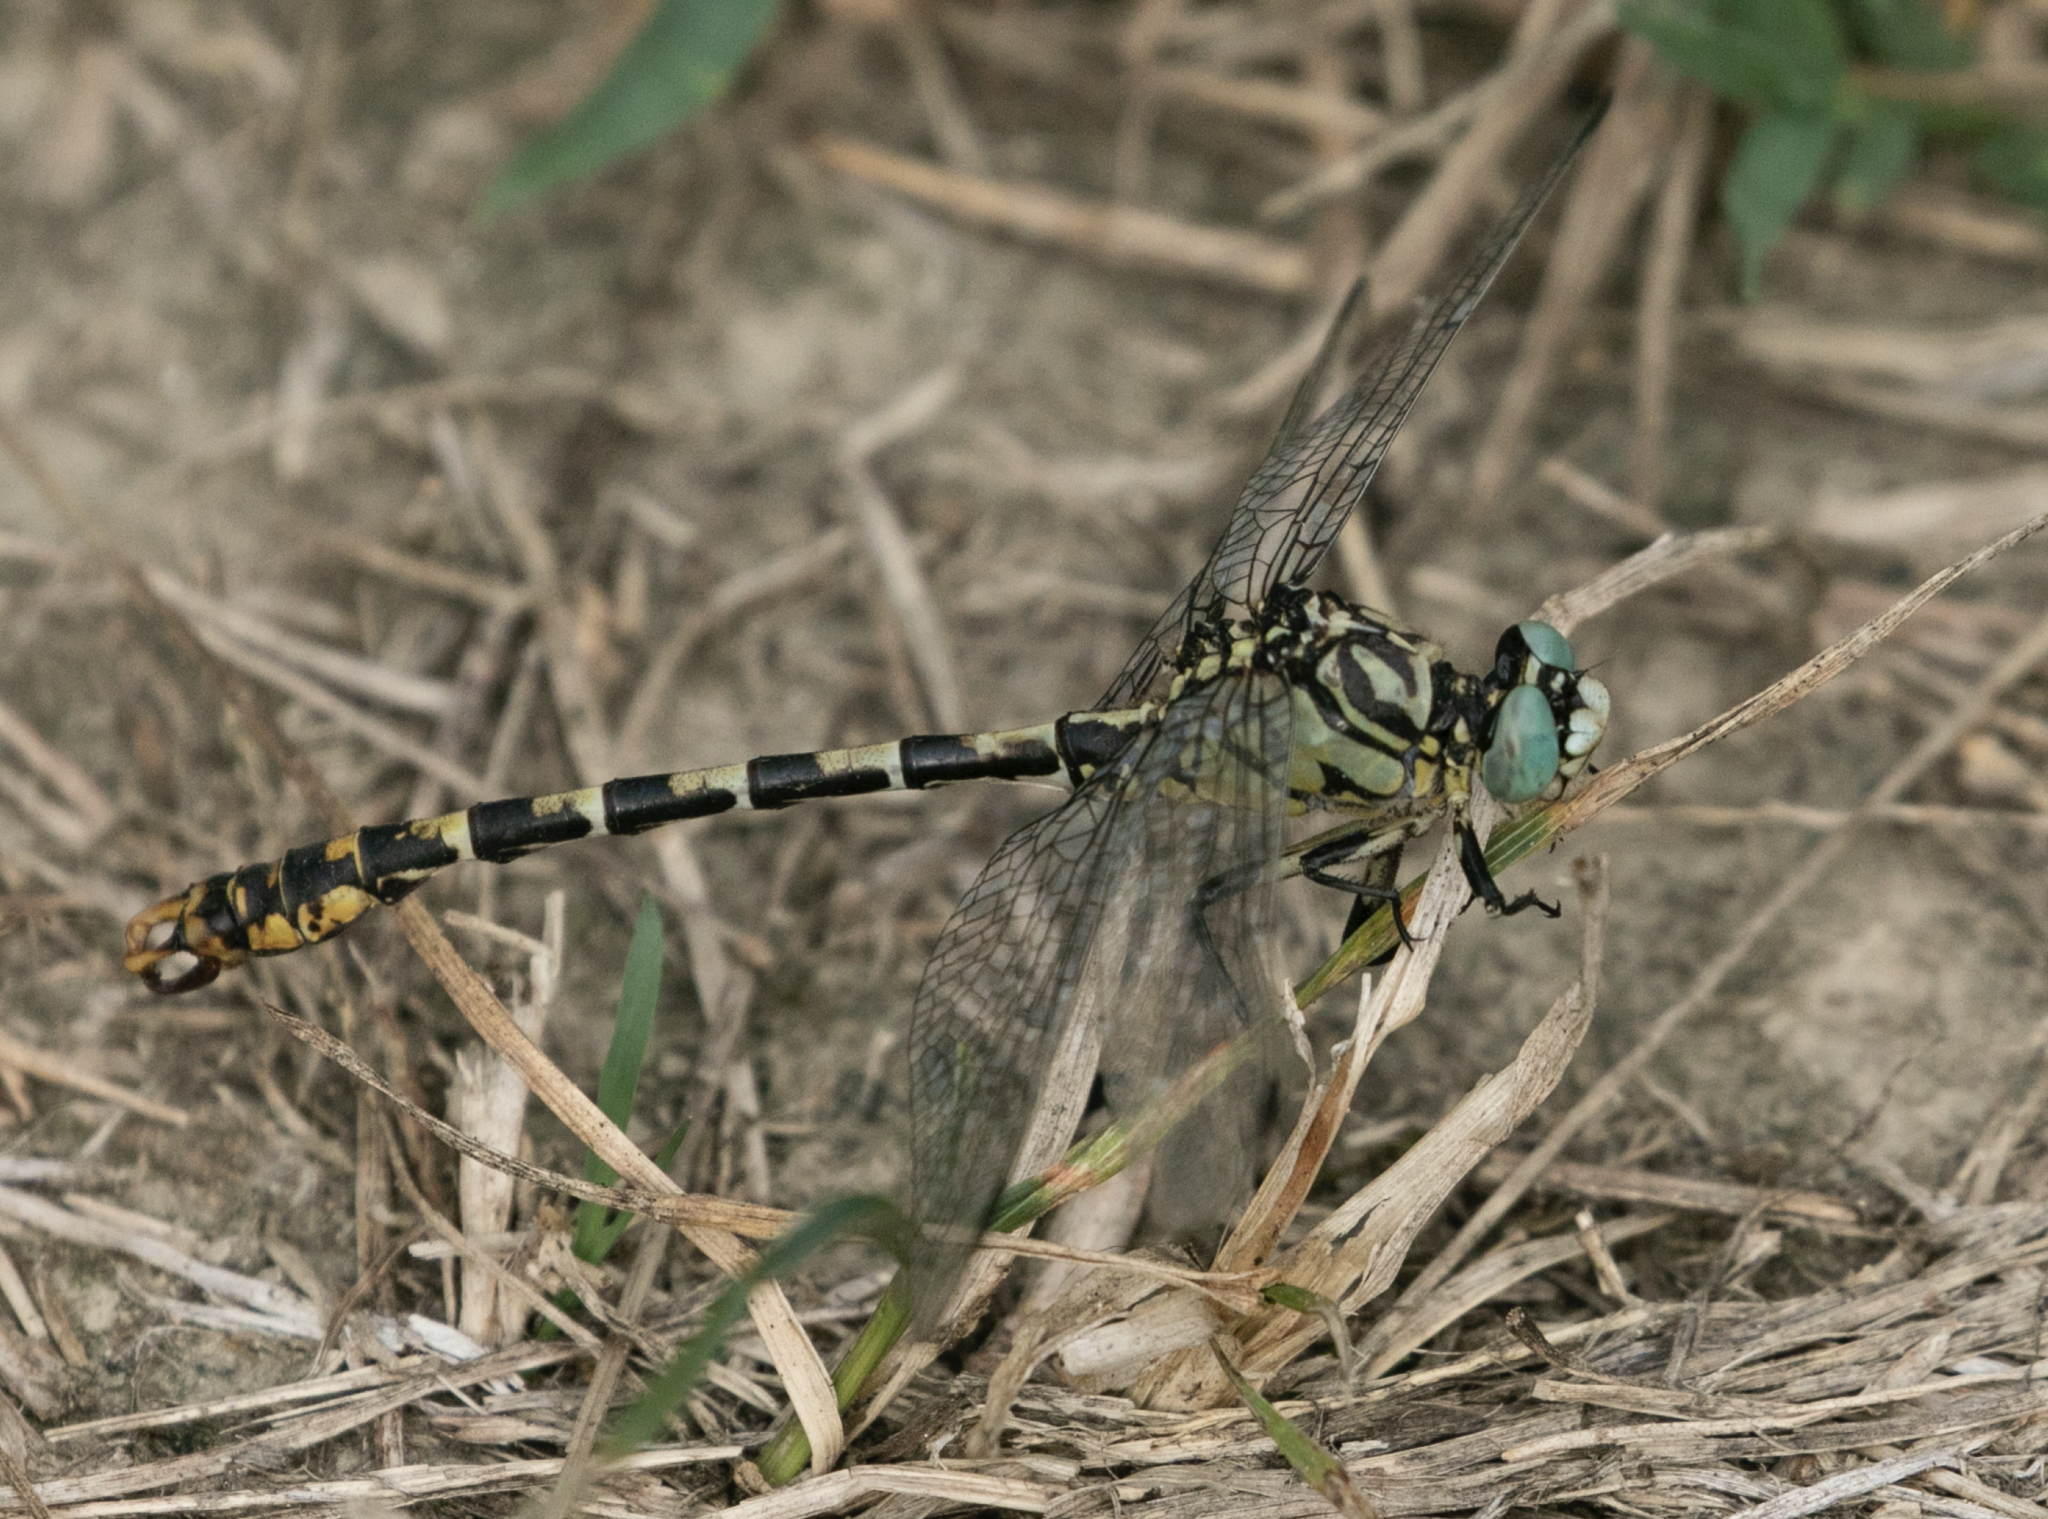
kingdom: Animalia
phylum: Arthropoda
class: Insecta
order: Odonata
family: Gomphidae
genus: Onychogomphus
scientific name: Onychogomphus forcipatus
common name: Small pincertail
